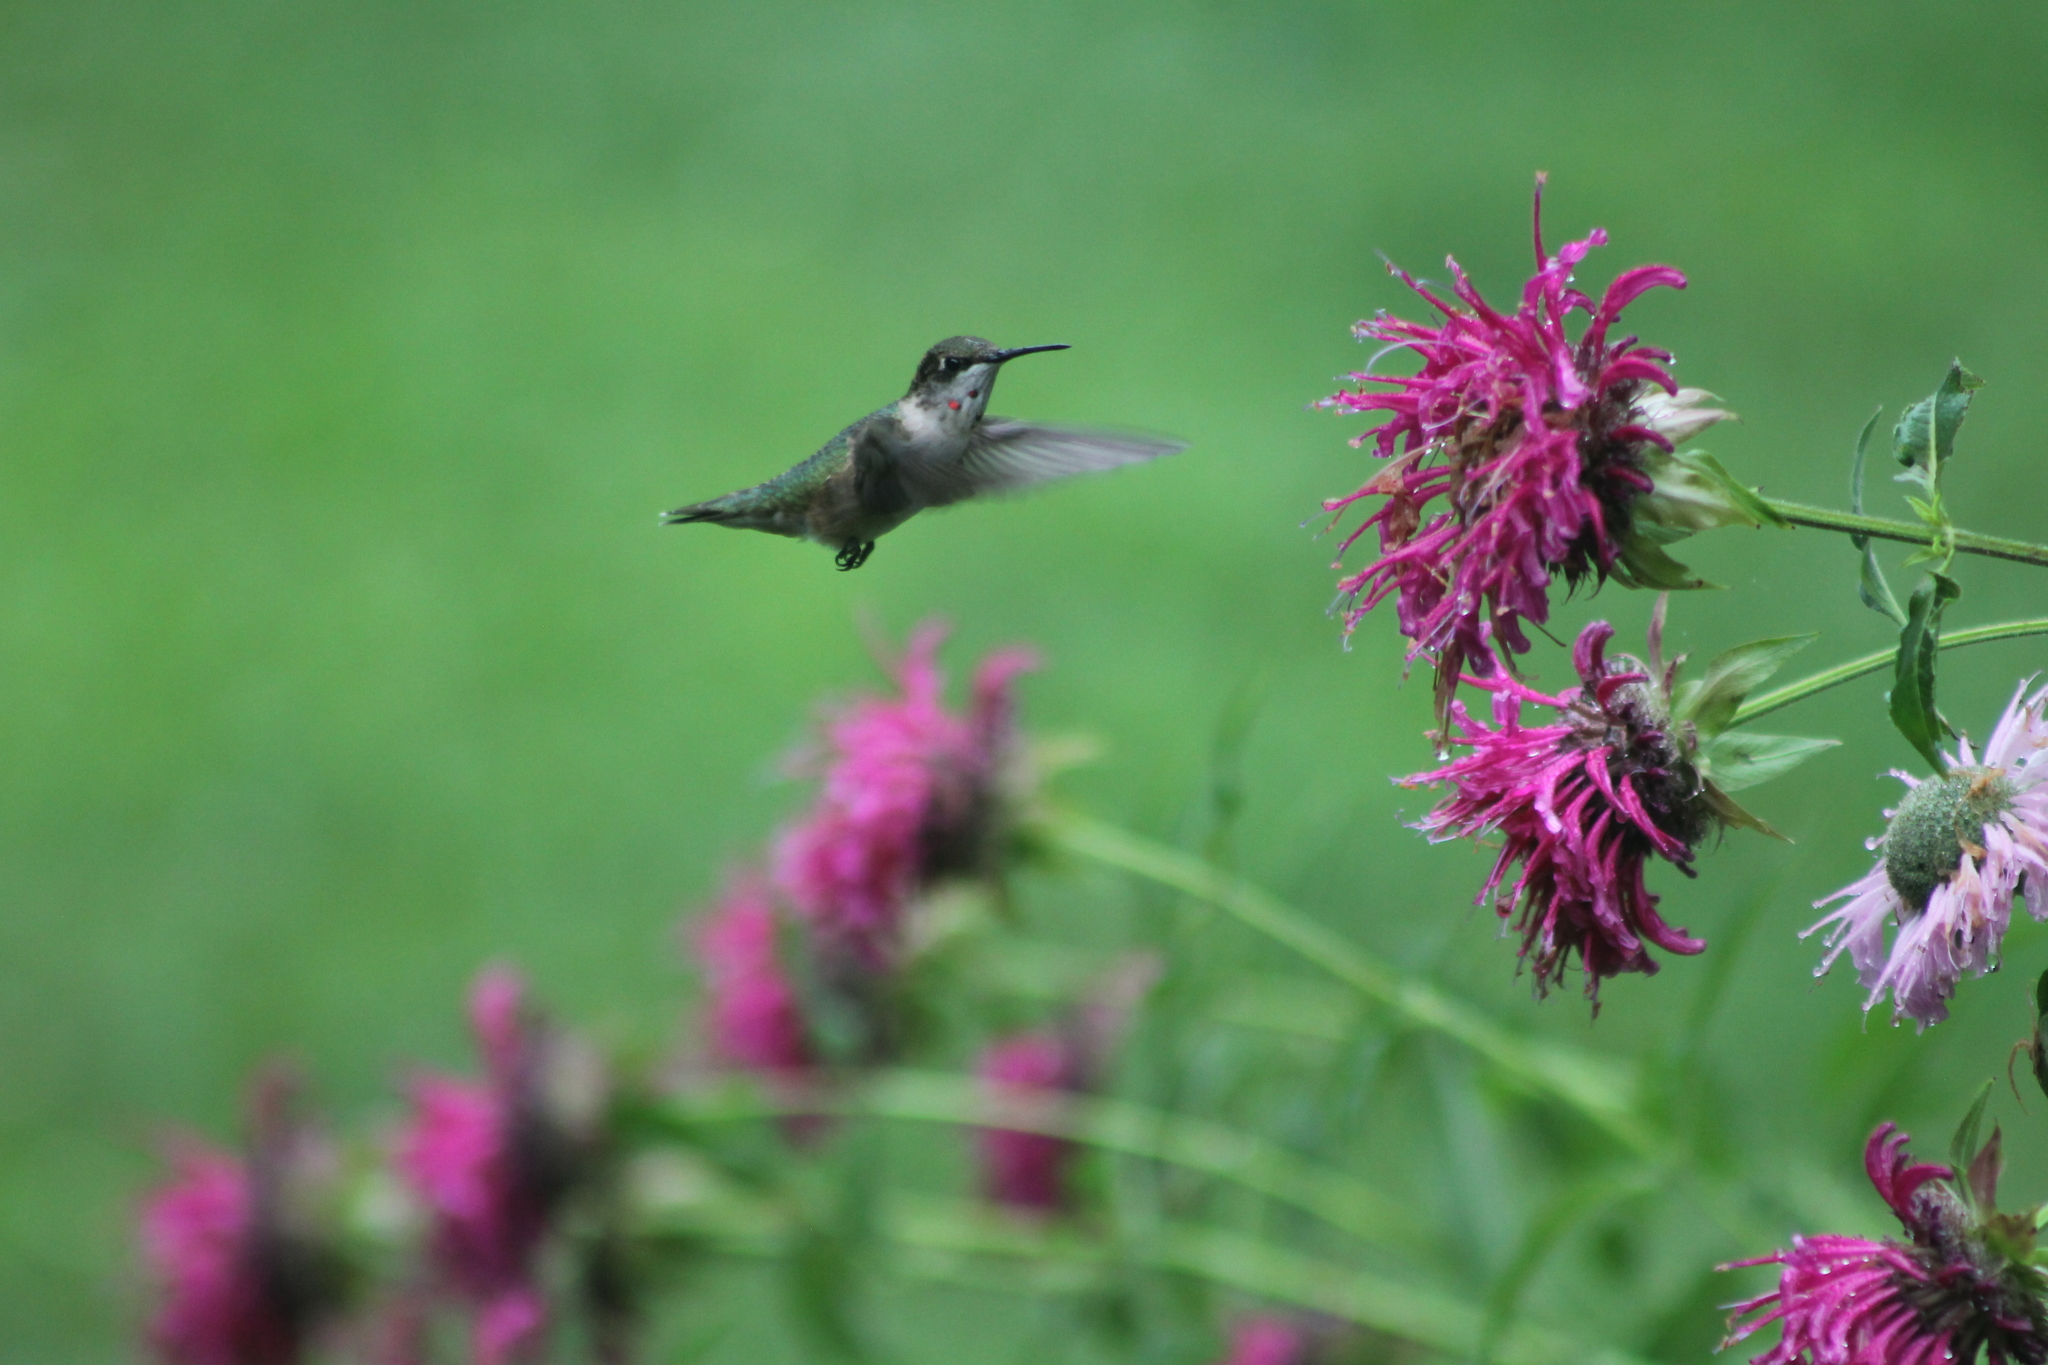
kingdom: Animalia
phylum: Chordata
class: Aves
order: Apodiformes
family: Trochilidae
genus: Archilochus
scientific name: Archilochus colubris
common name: Ruby-throated hummingbird
